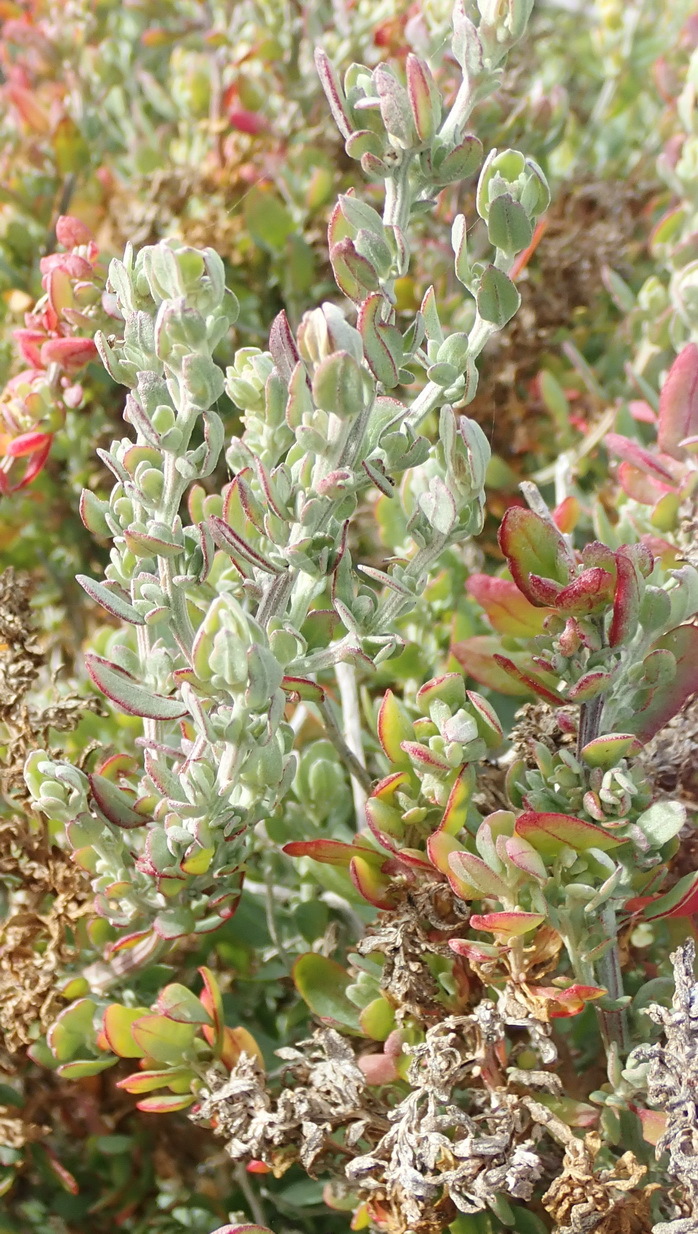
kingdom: Plantae
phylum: Tracheophyta
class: Magnoliopsida
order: Caryophyllales
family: Amaranthaceae
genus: Exomis
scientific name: Exomis microphylla
